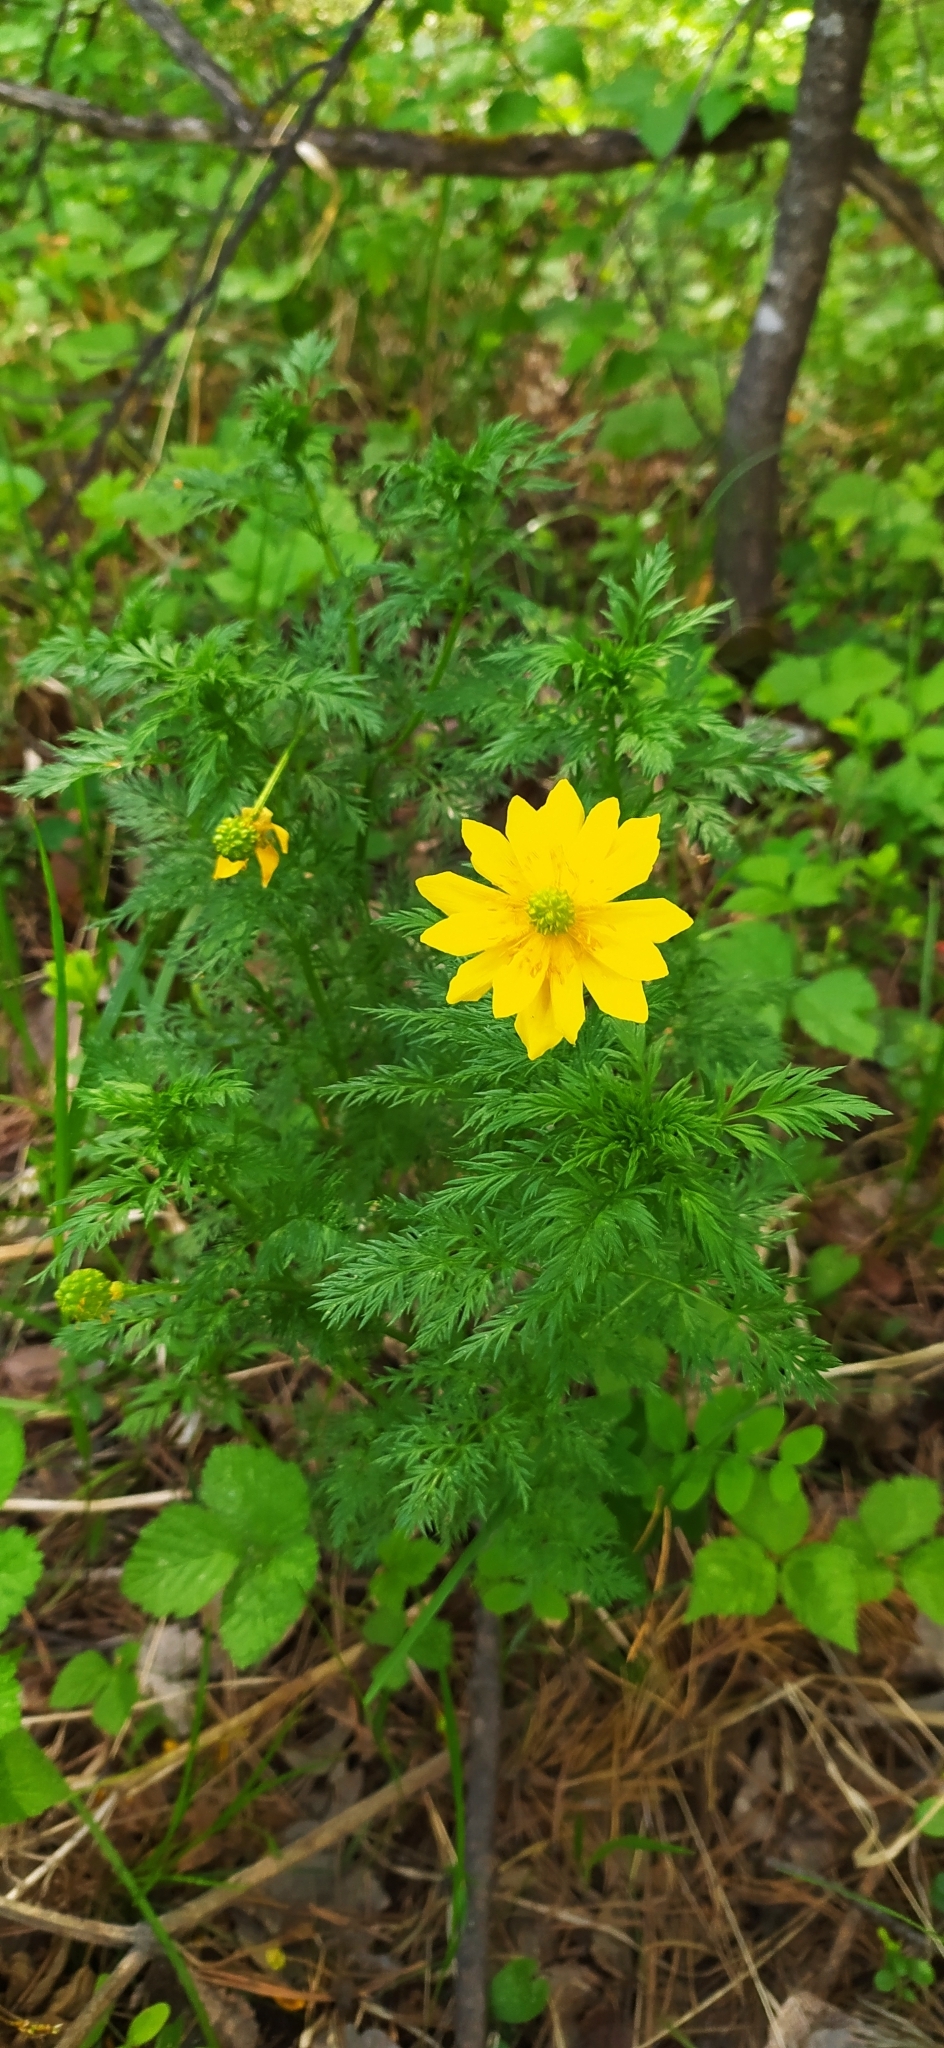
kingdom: Plantae
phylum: Tracheophyta
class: Magnoliopsida
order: Ranunculales
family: Ranunculaceae
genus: Adonis
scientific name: Adonis
